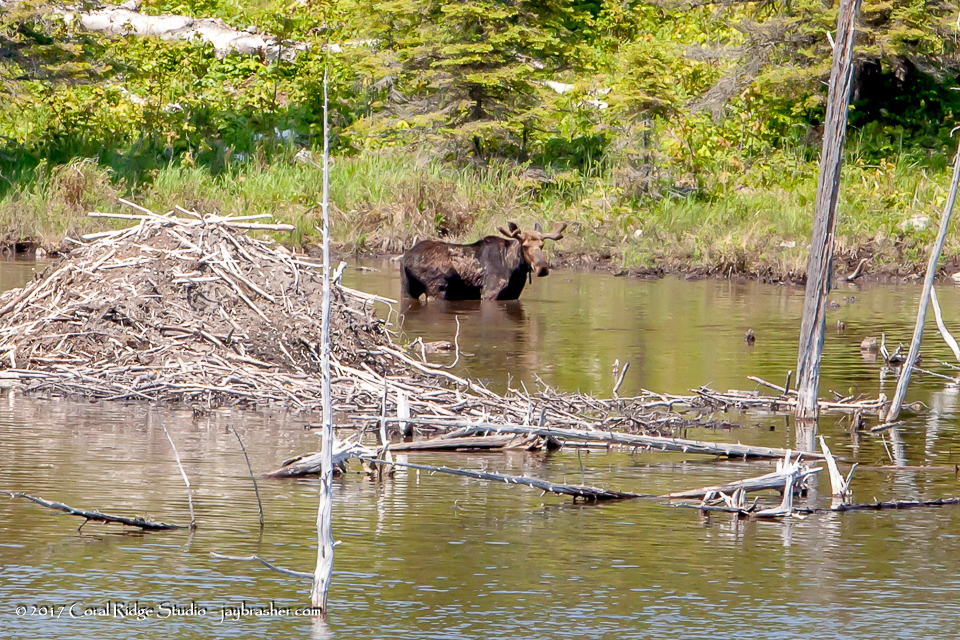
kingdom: Animalia
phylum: Chordata
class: Mammalia
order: Artiodactyla
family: Cervidae
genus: Alces
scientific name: Alces alces
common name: Moose
